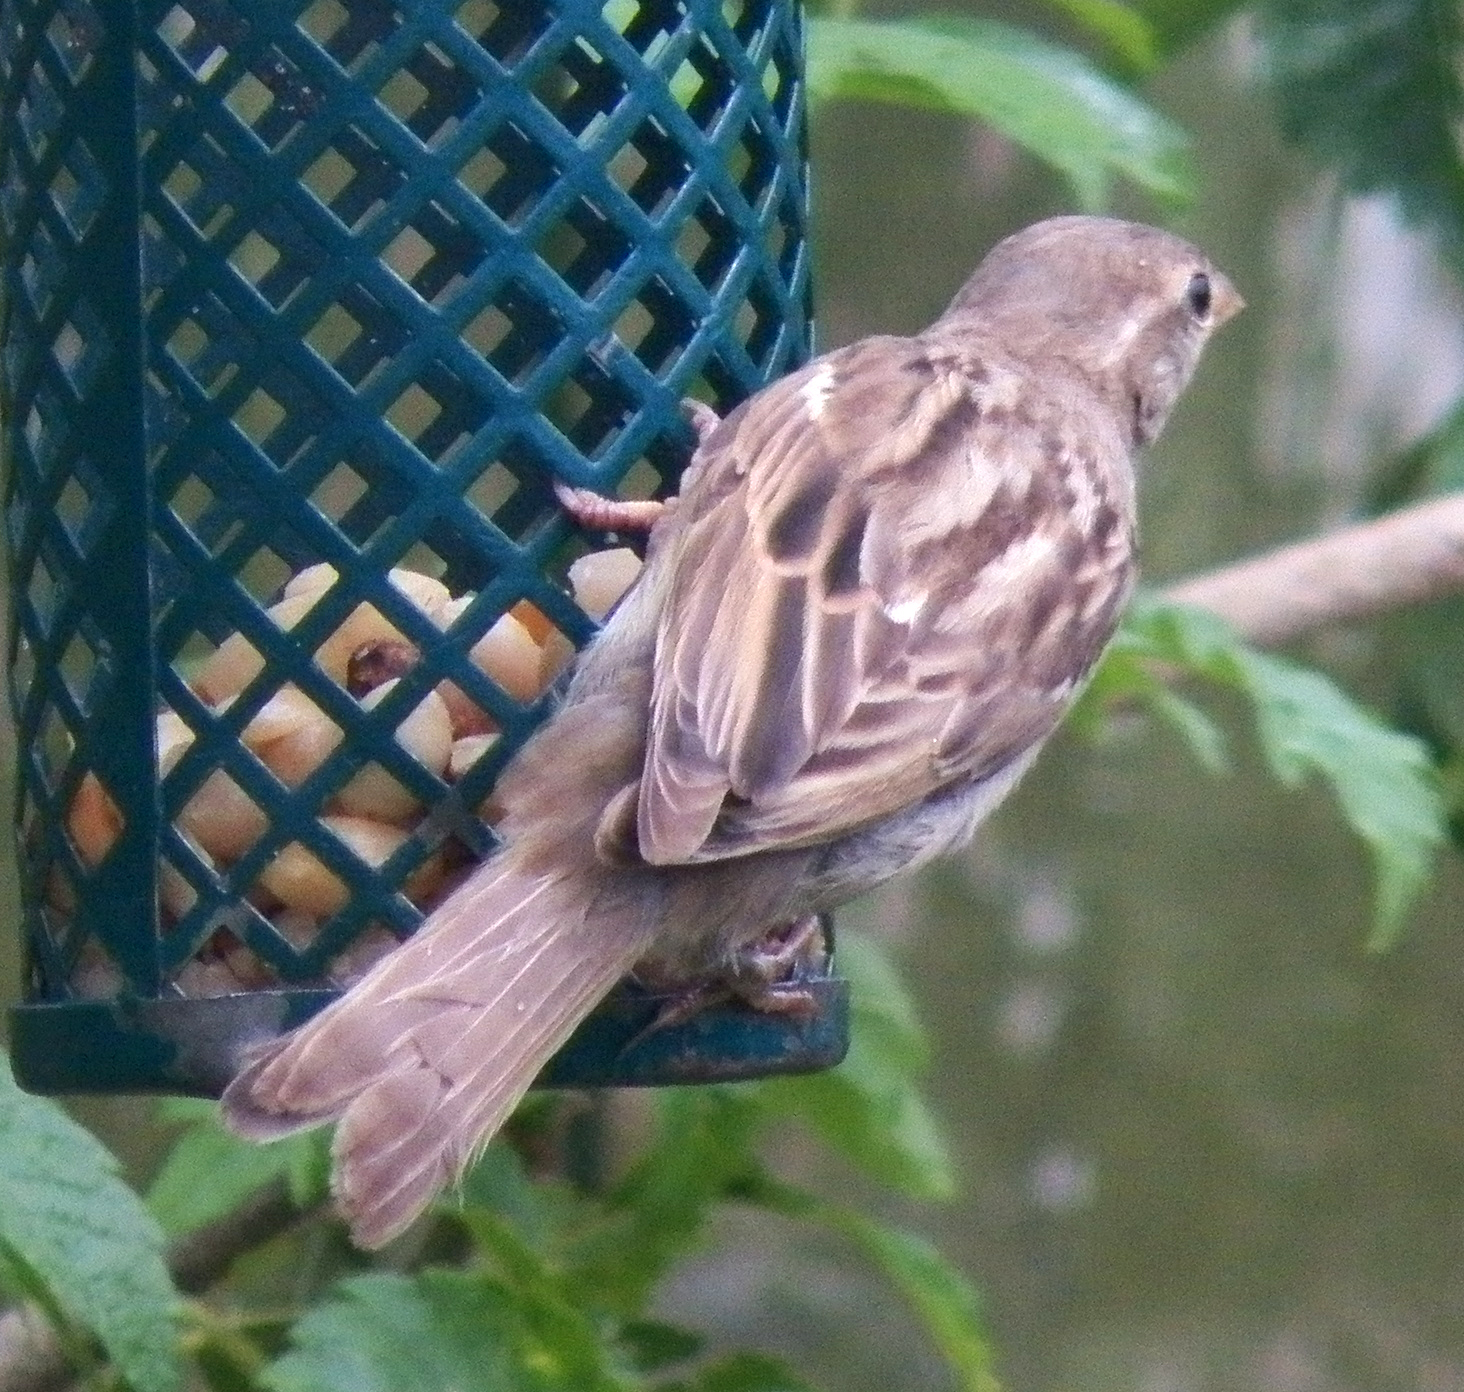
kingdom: Animalia
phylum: Chordata
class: Aves
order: Passeriformes
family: Passeridae
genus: Passer
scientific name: Passer domesticus
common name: House sparrow
